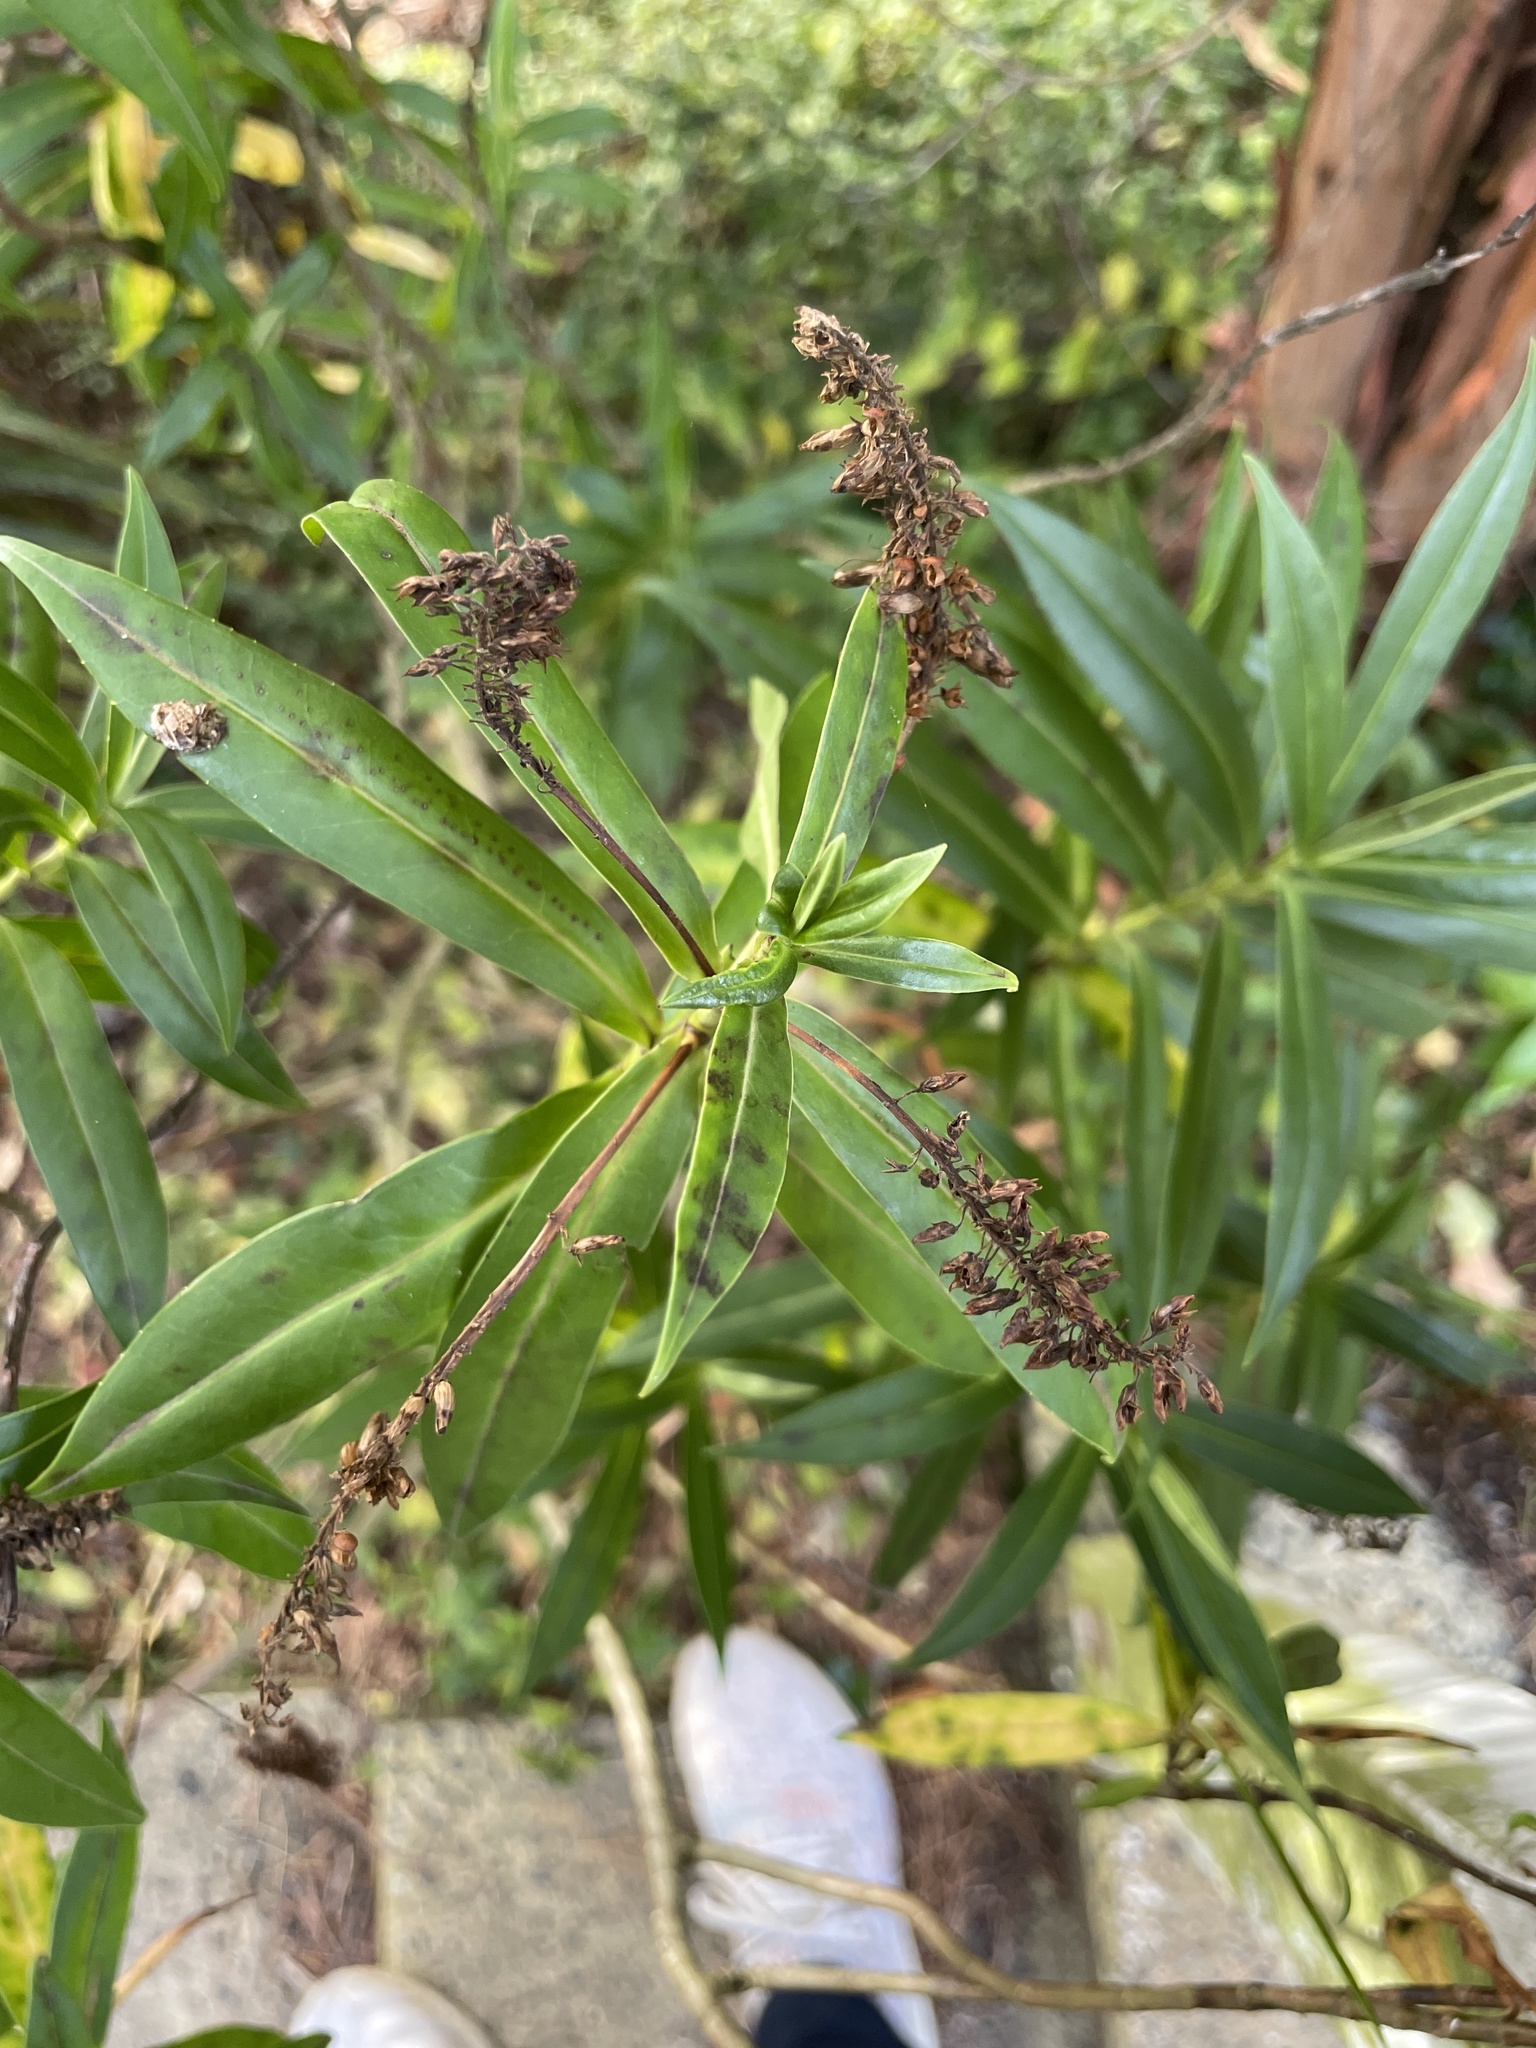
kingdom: Plantae
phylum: Tracheophyta
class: Magnoliopsida
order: Lamiales
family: Plantaginaceae
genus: Veronica
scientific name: Veronica salicifolia
